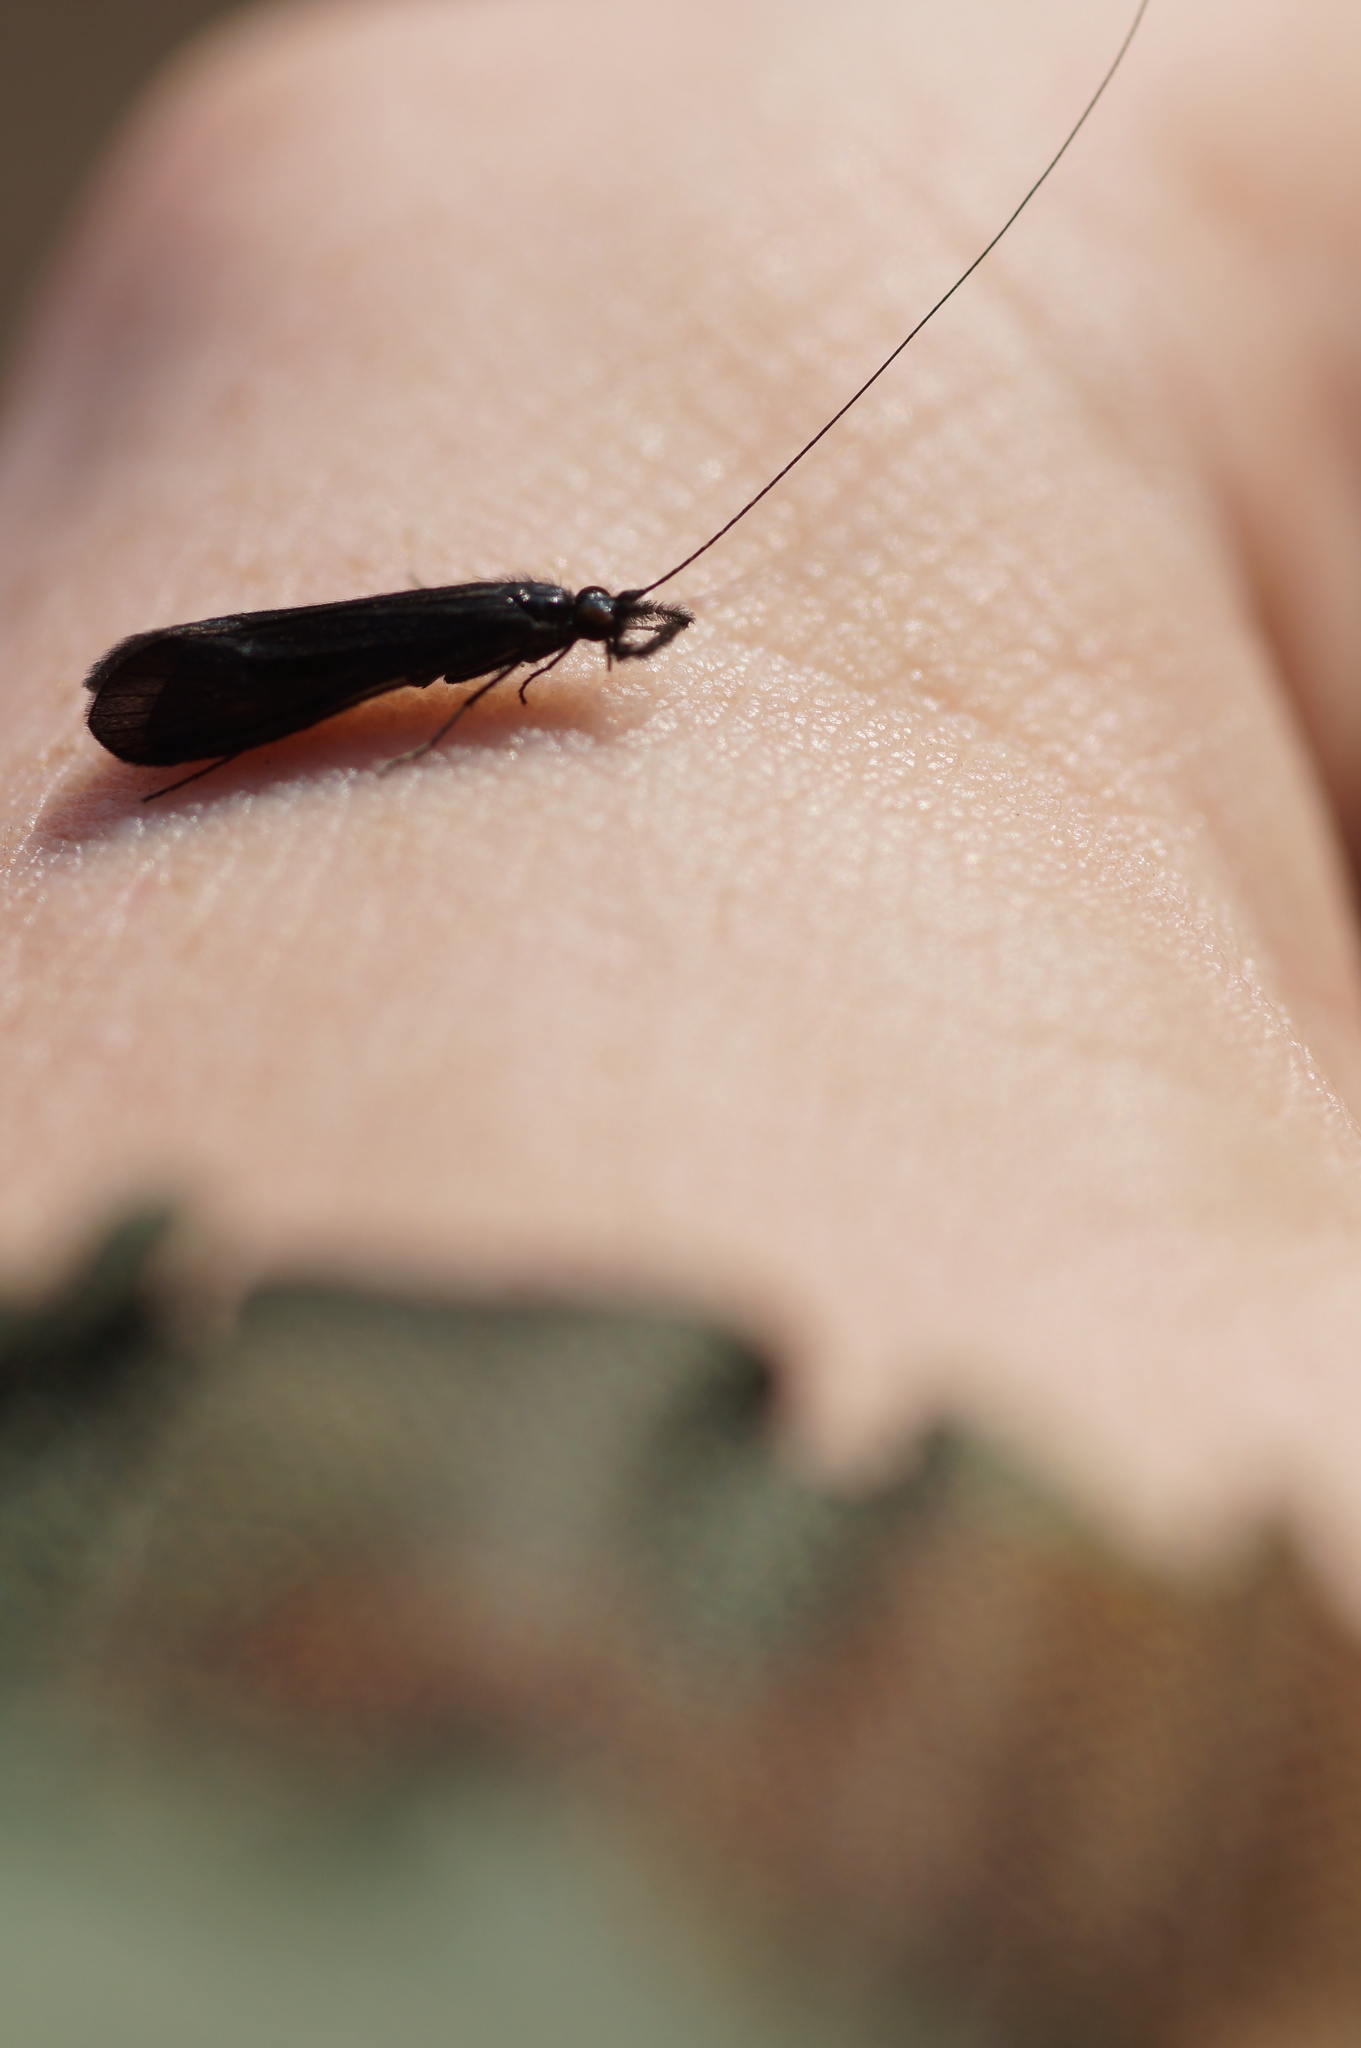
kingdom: Animalia
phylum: Arthropoda
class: Insecta
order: Trichoptera
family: Leptoceridae
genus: Mystacides
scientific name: Mystacides niger
